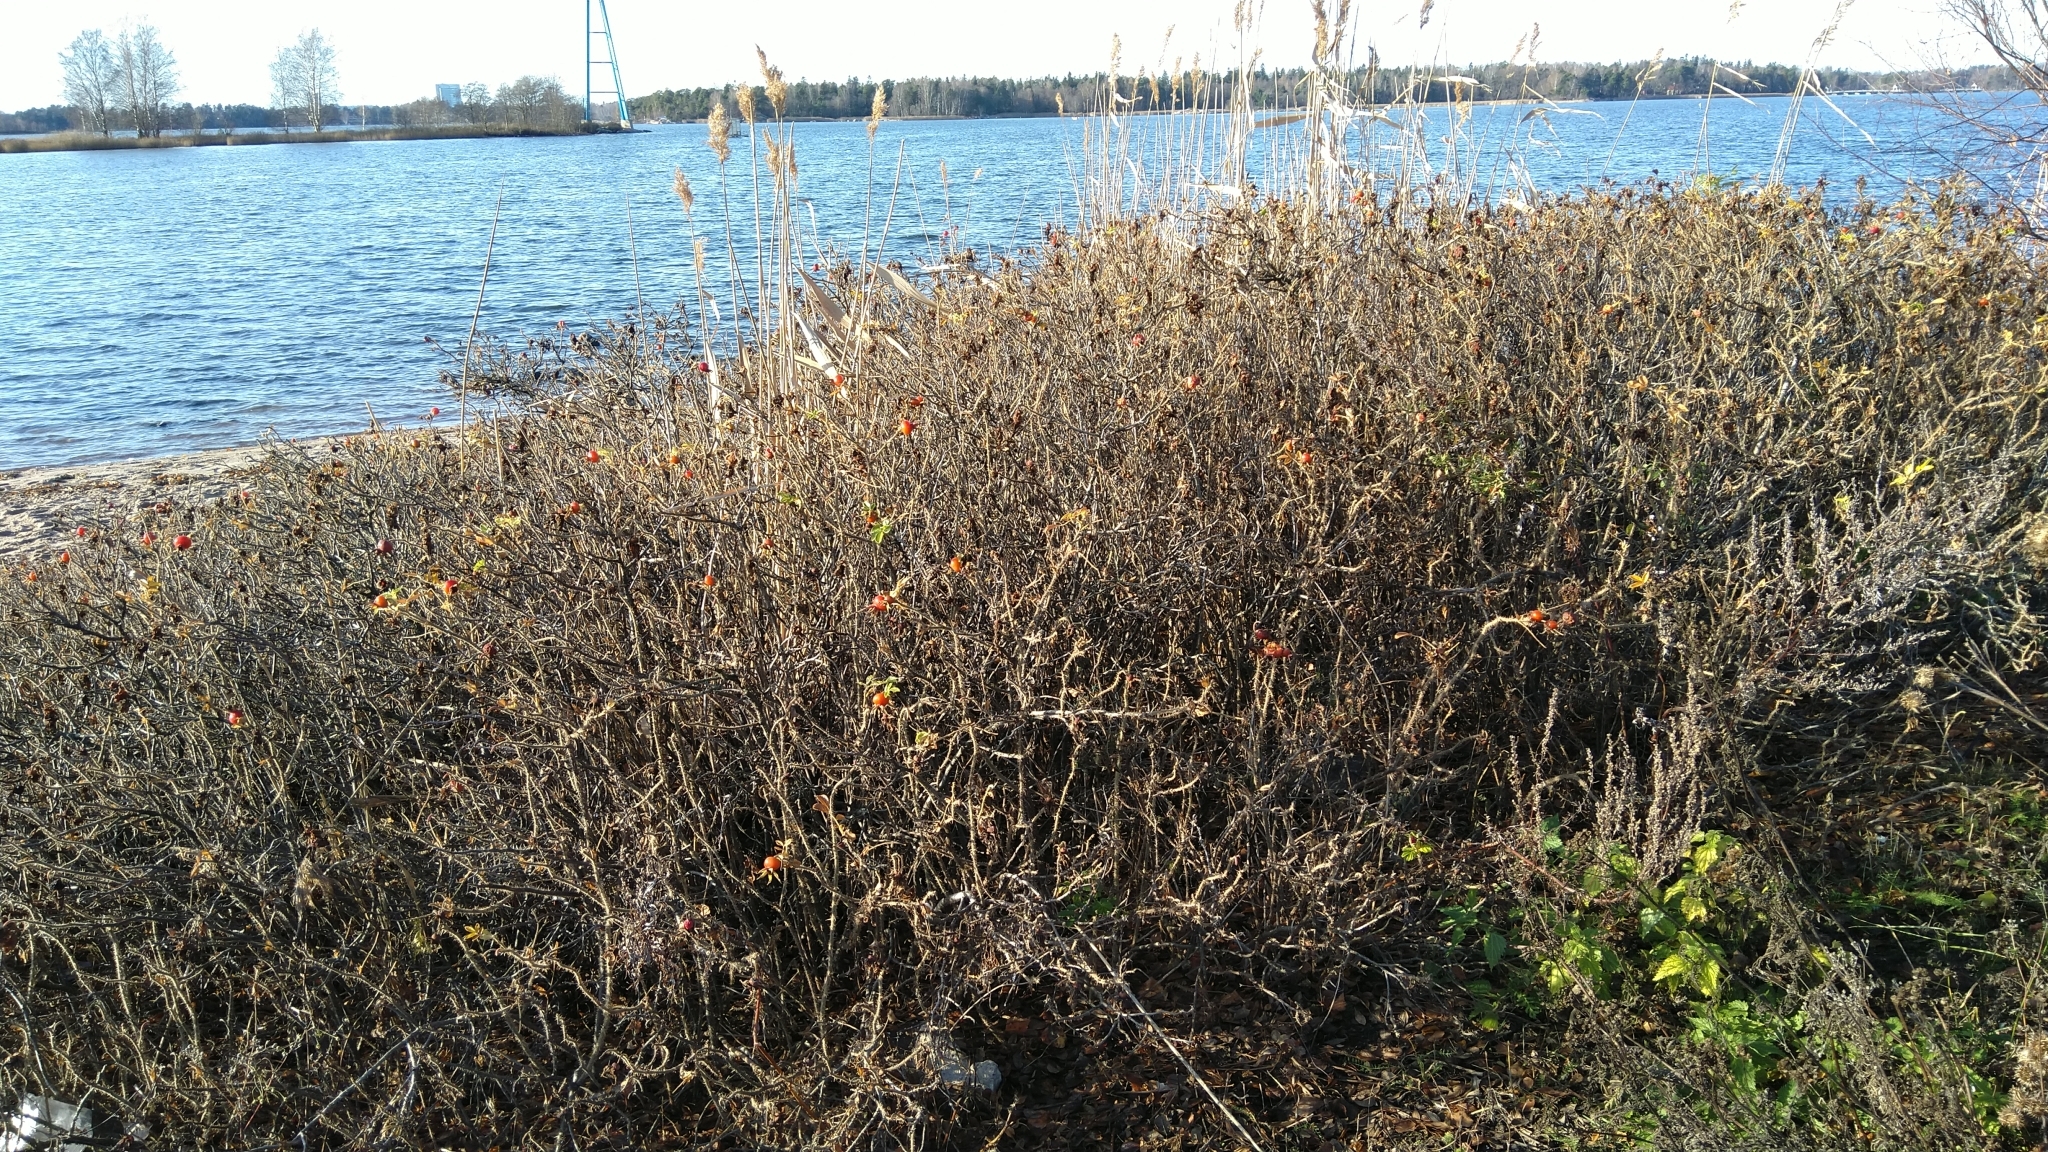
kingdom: Plantae
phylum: Tracheophyta
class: Magnoliopsida
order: Rosales
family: Rosaceae
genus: Rosa
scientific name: Rosa rugosa
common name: Japanese rose
